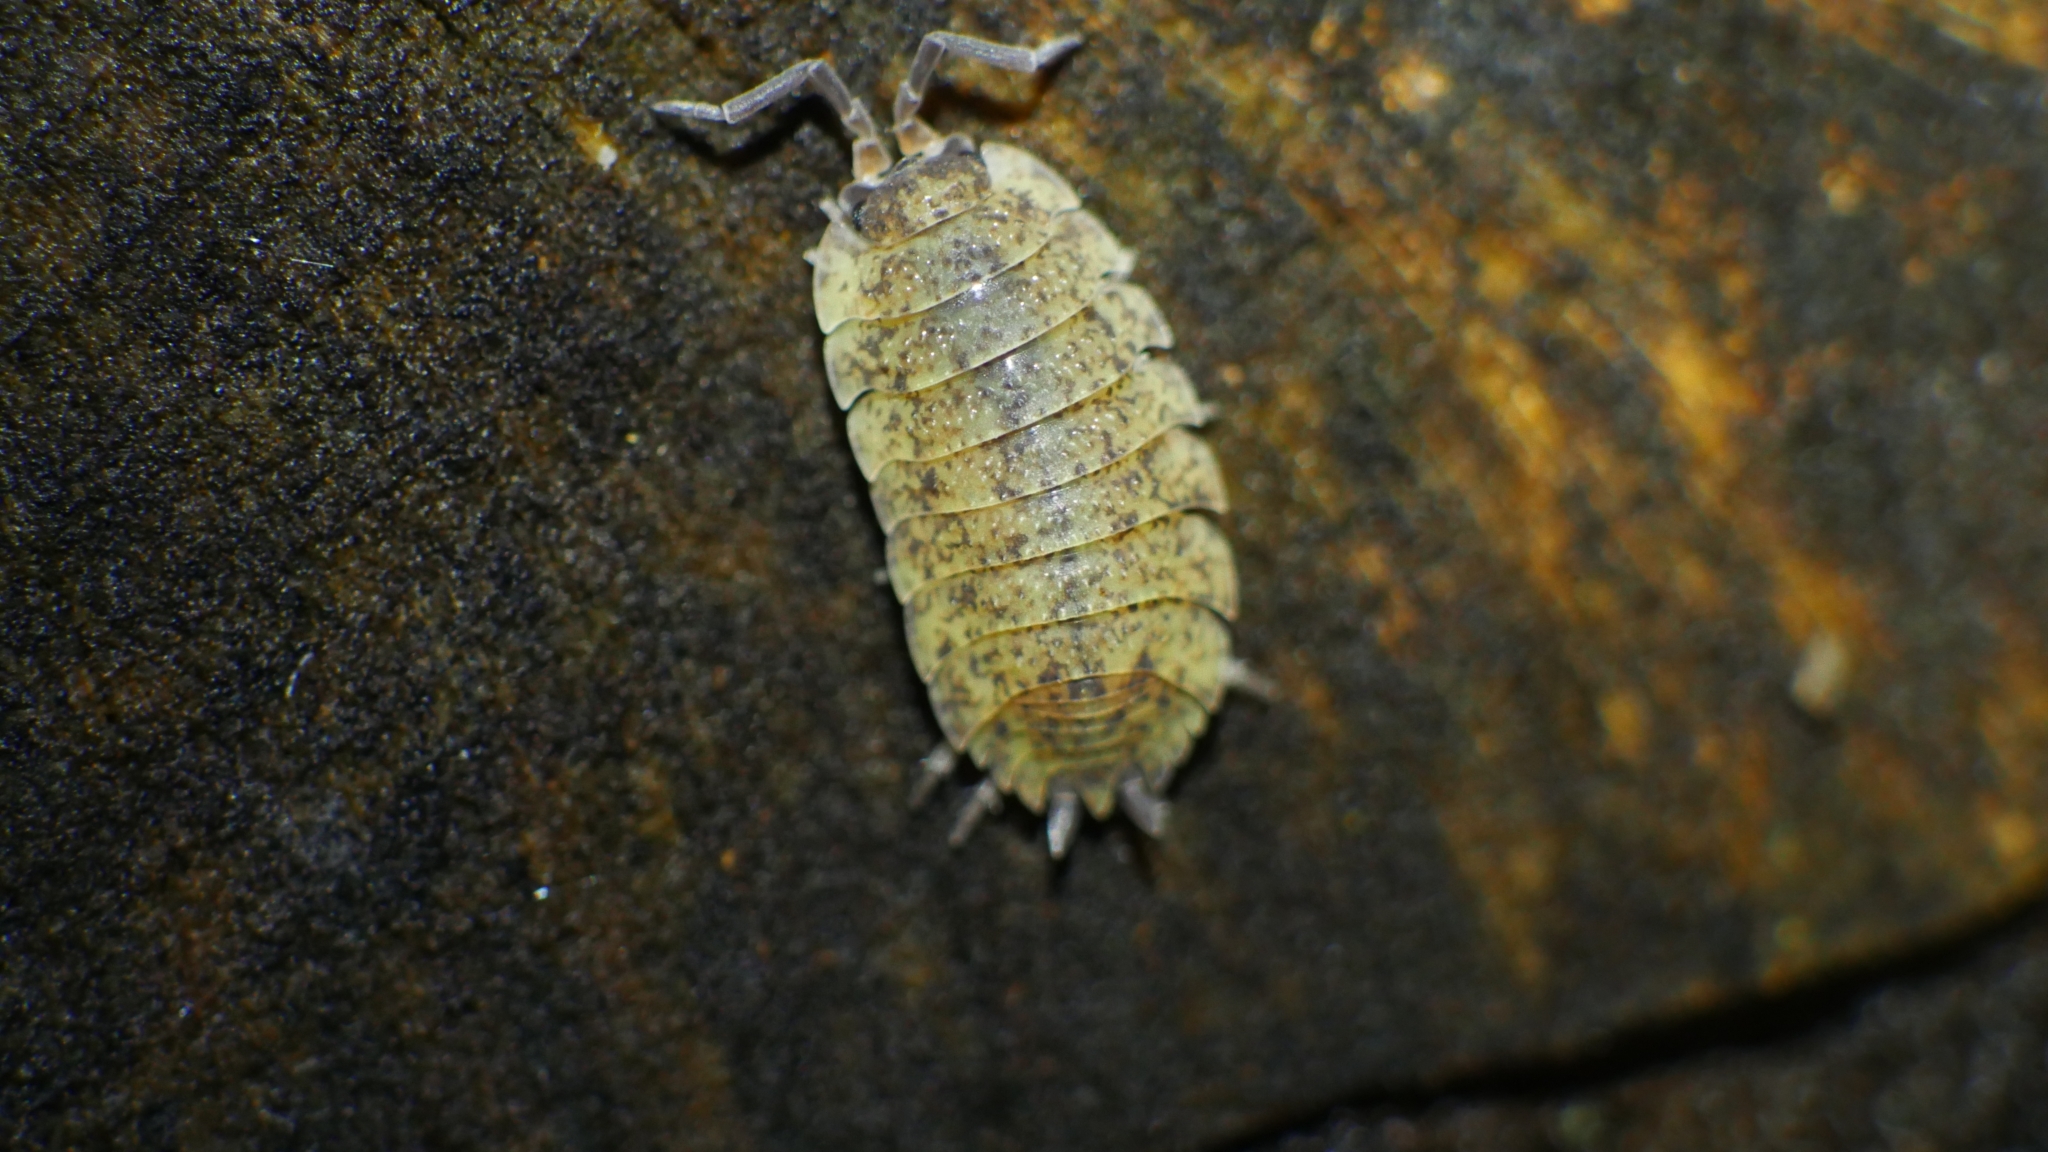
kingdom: Animalia
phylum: Arthropoda
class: Malacostraca
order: Isopoda
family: Porcellionidae
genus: Porcellio
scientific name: Porcellio scaber
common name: Common rough woodlouse
